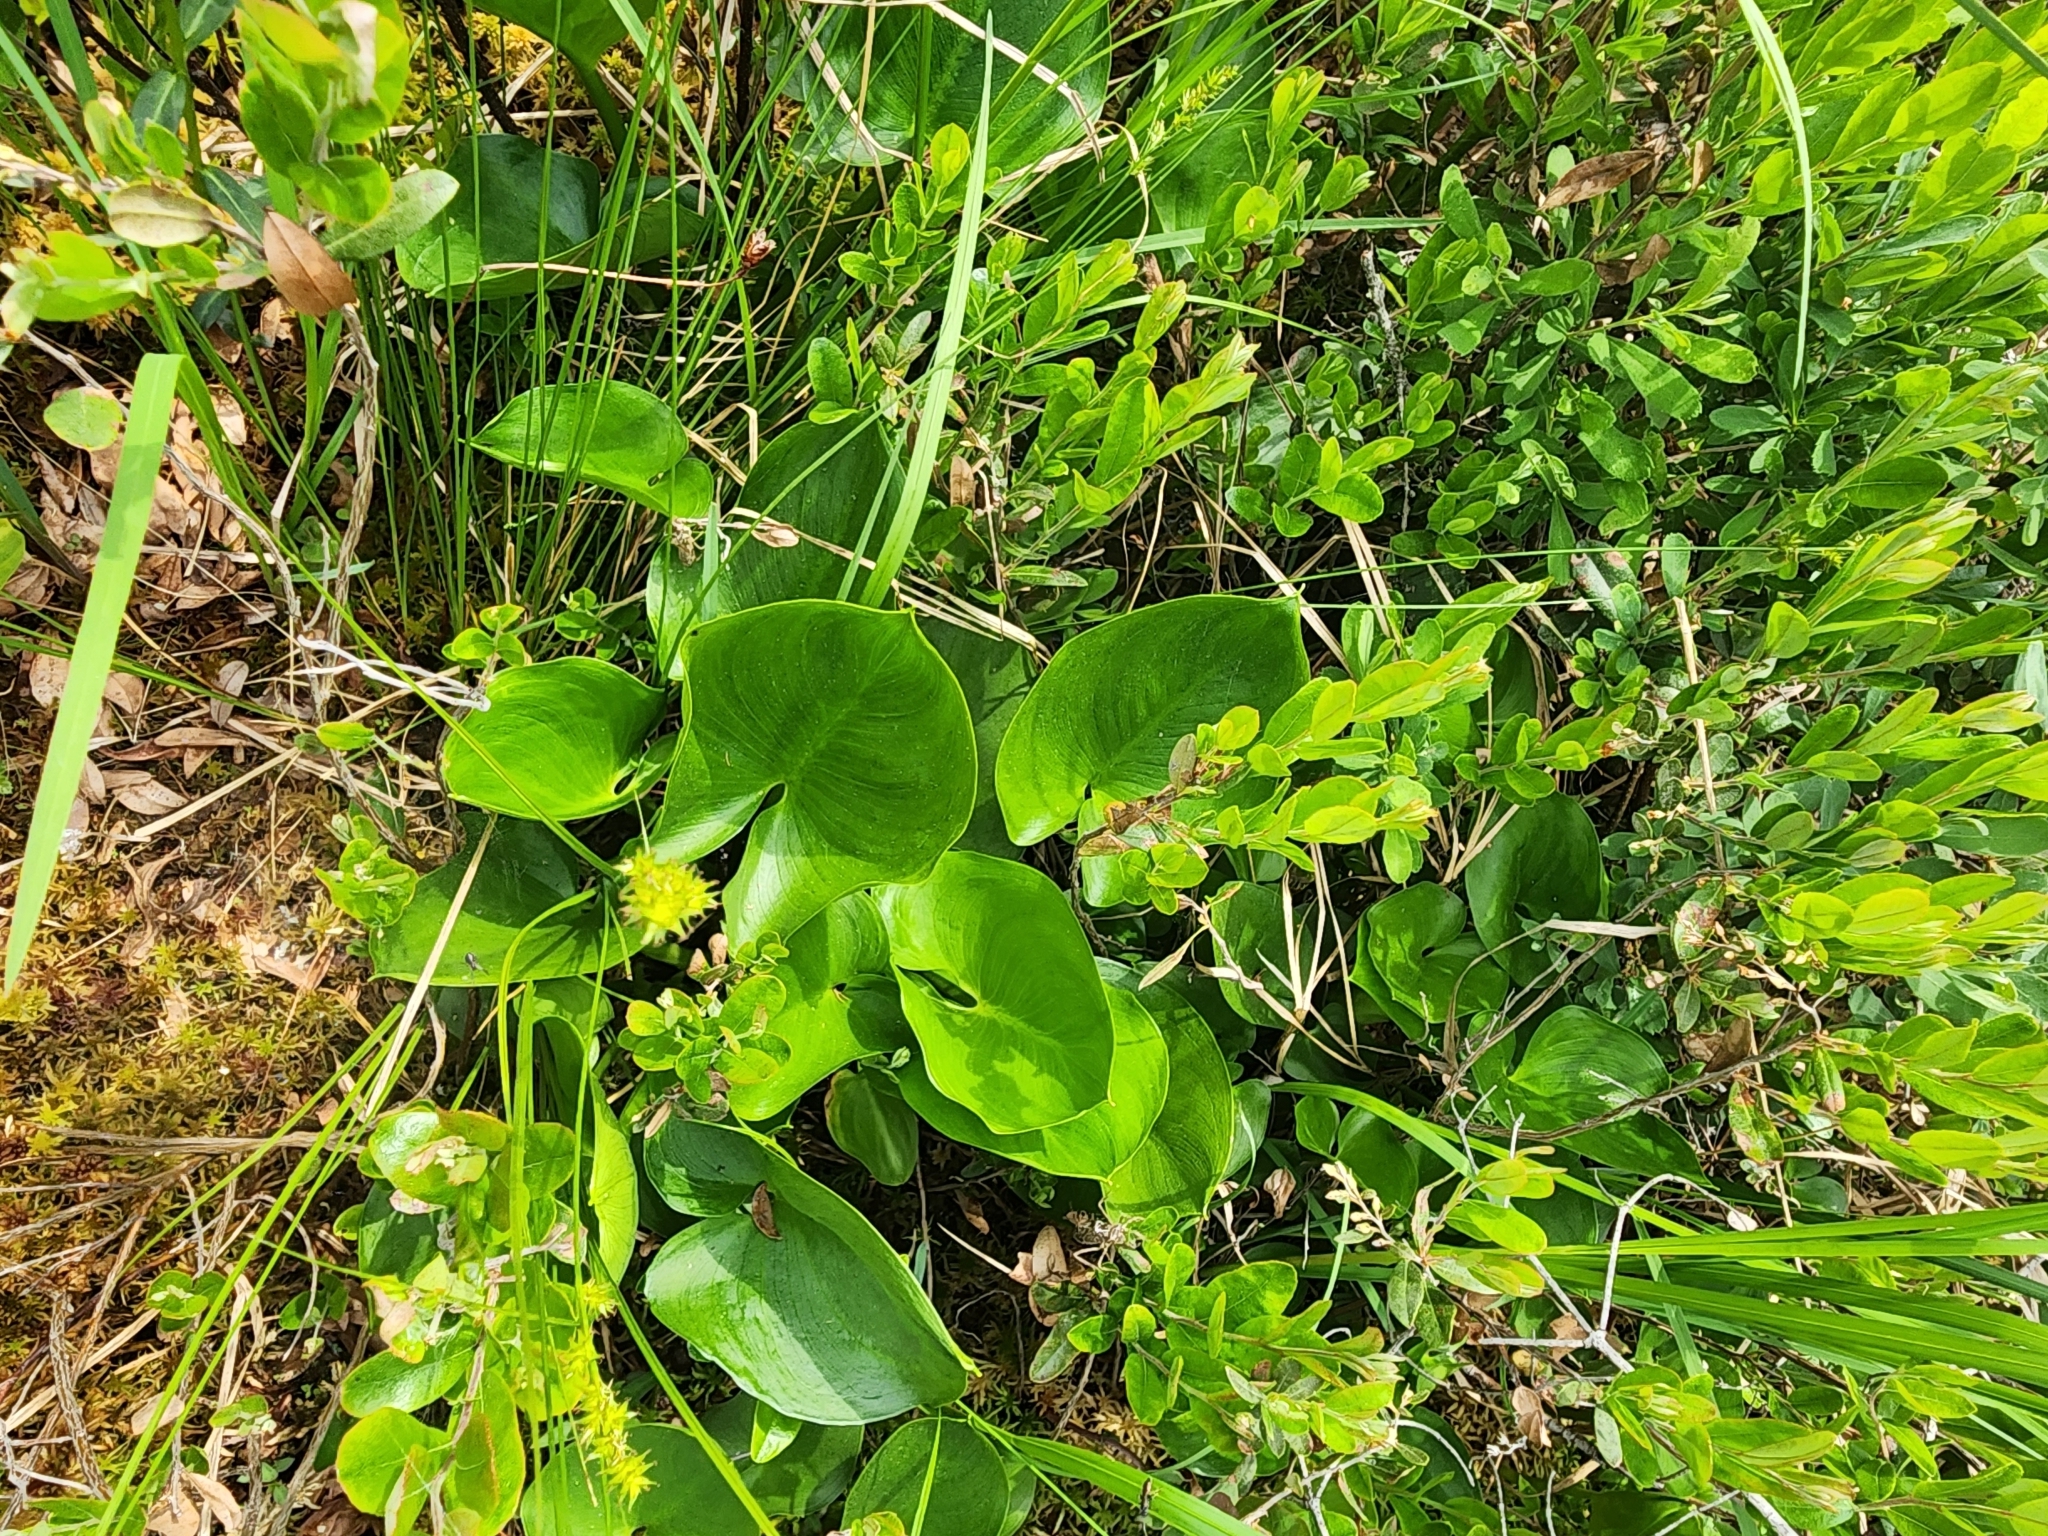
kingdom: Plantae
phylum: Tracheophyta
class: Liliopsida
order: Alismatales
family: Araceae
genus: Calla
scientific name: Calla palustris
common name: Bog arum
